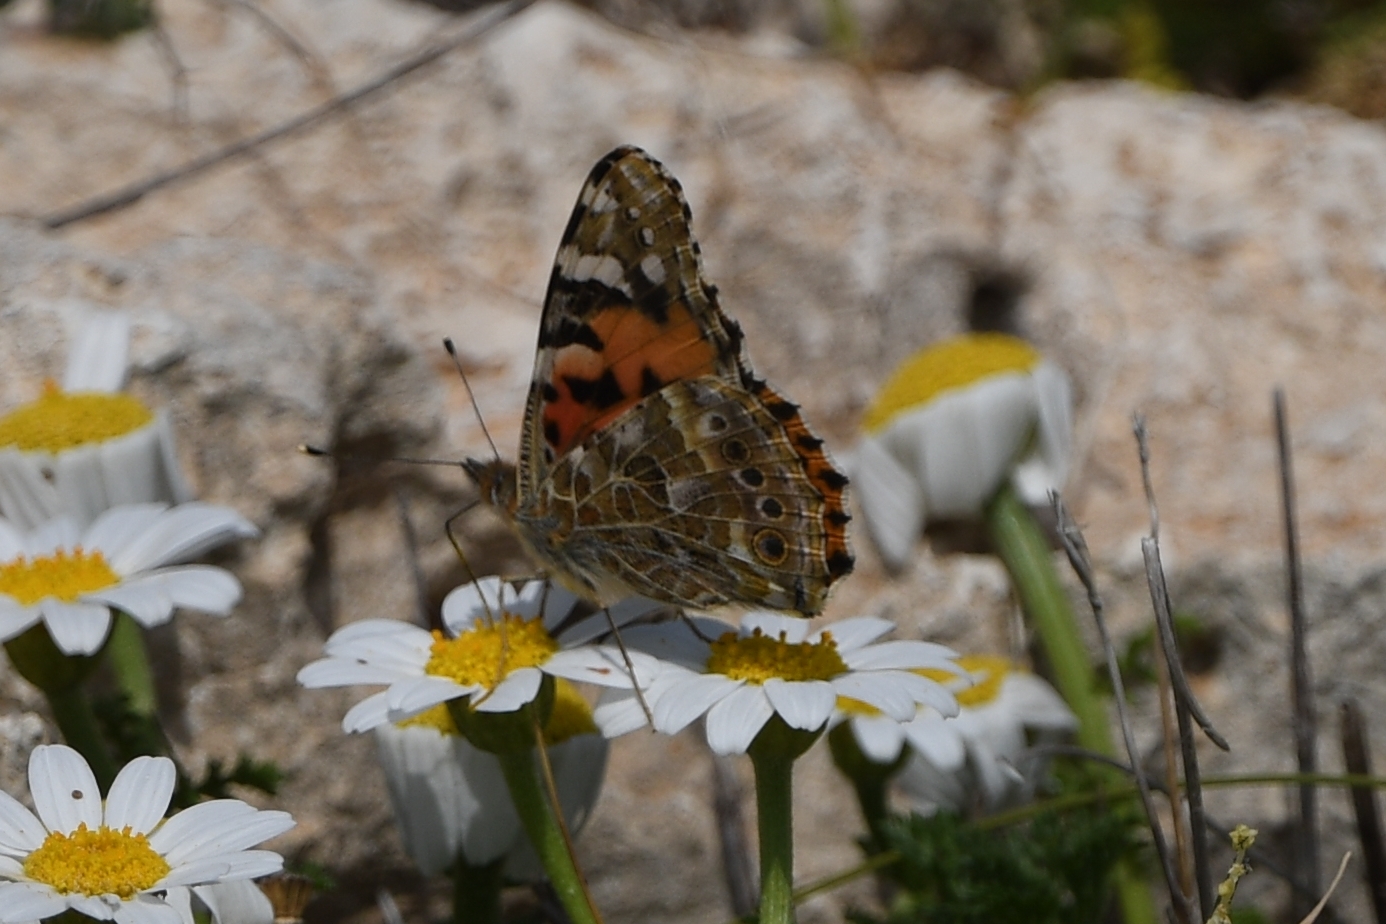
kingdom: Animalia
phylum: Arthropoda
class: Insecta
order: Lepidoptera
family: Nymphalidae
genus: Vanessa
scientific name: Vanessa cardui
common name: Painted lady
